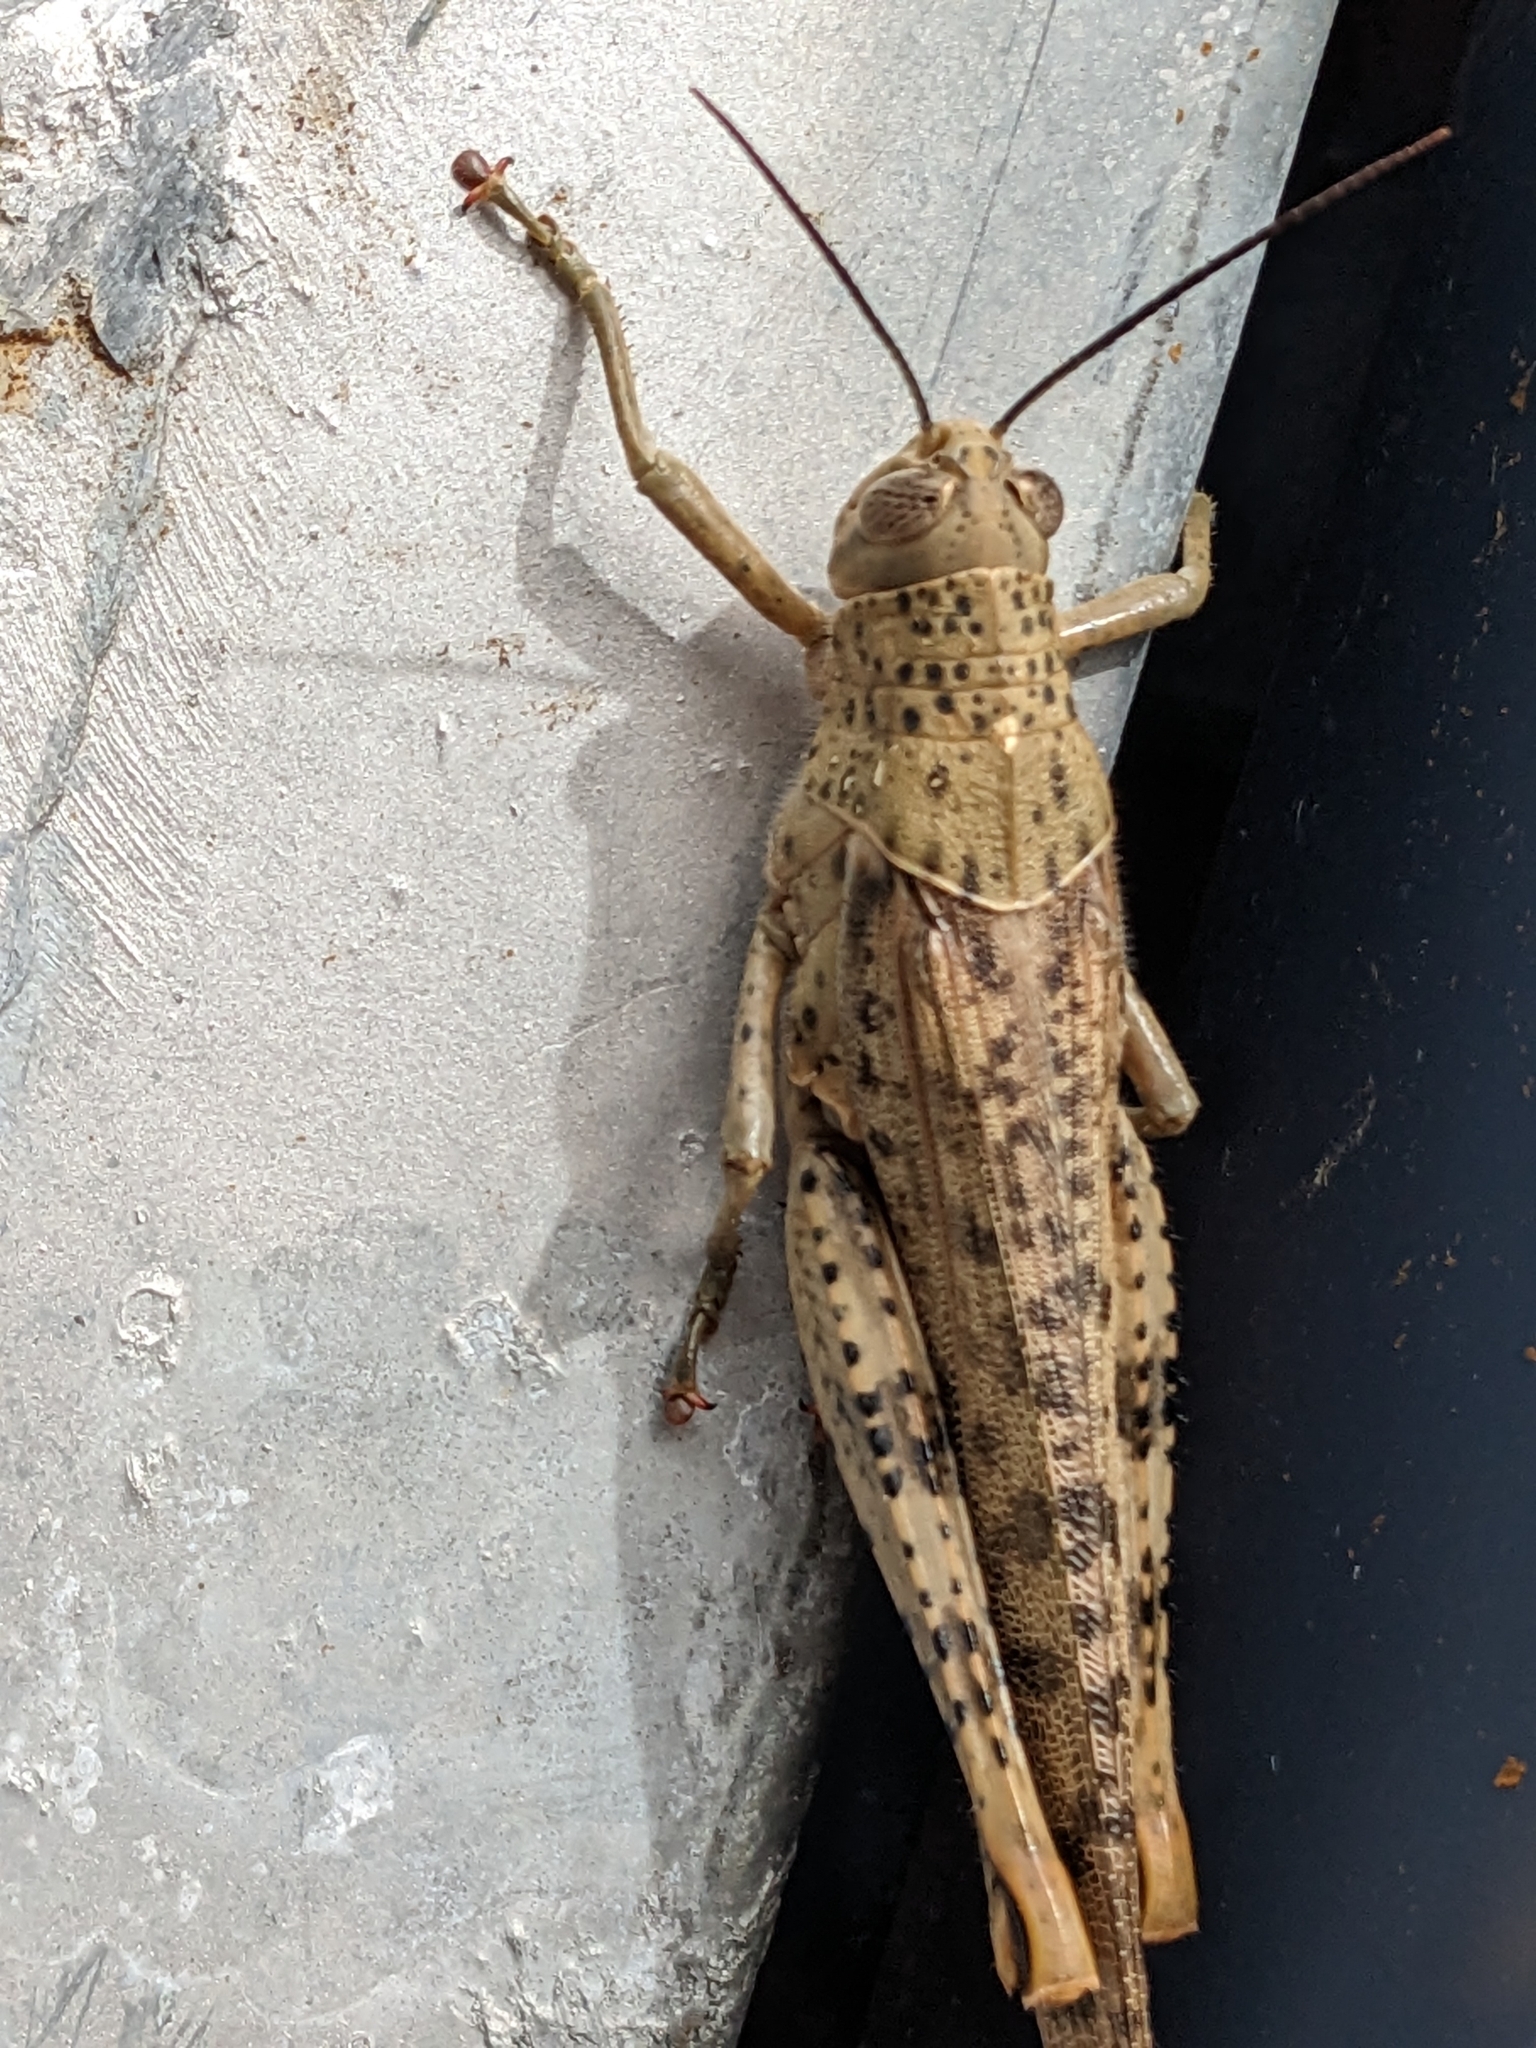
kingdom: Animalia
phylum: Arthropoda
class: Insecta
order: Orthoptera
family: Acrididae
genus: Valanga
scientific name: Valanga irregularis
